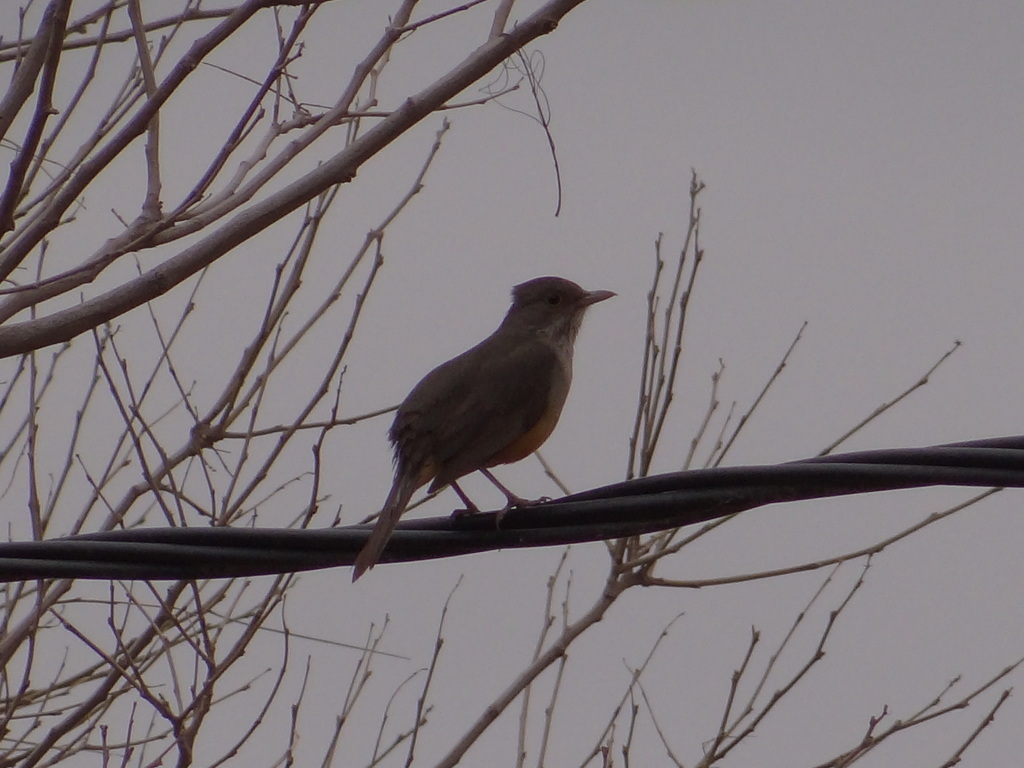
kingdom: Animalia
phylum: Chordata
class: Aves
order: Passeriformes
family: Turdidae
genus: Turdus
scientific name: Turdus rufiventris
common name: Rufous-bellied thrush
